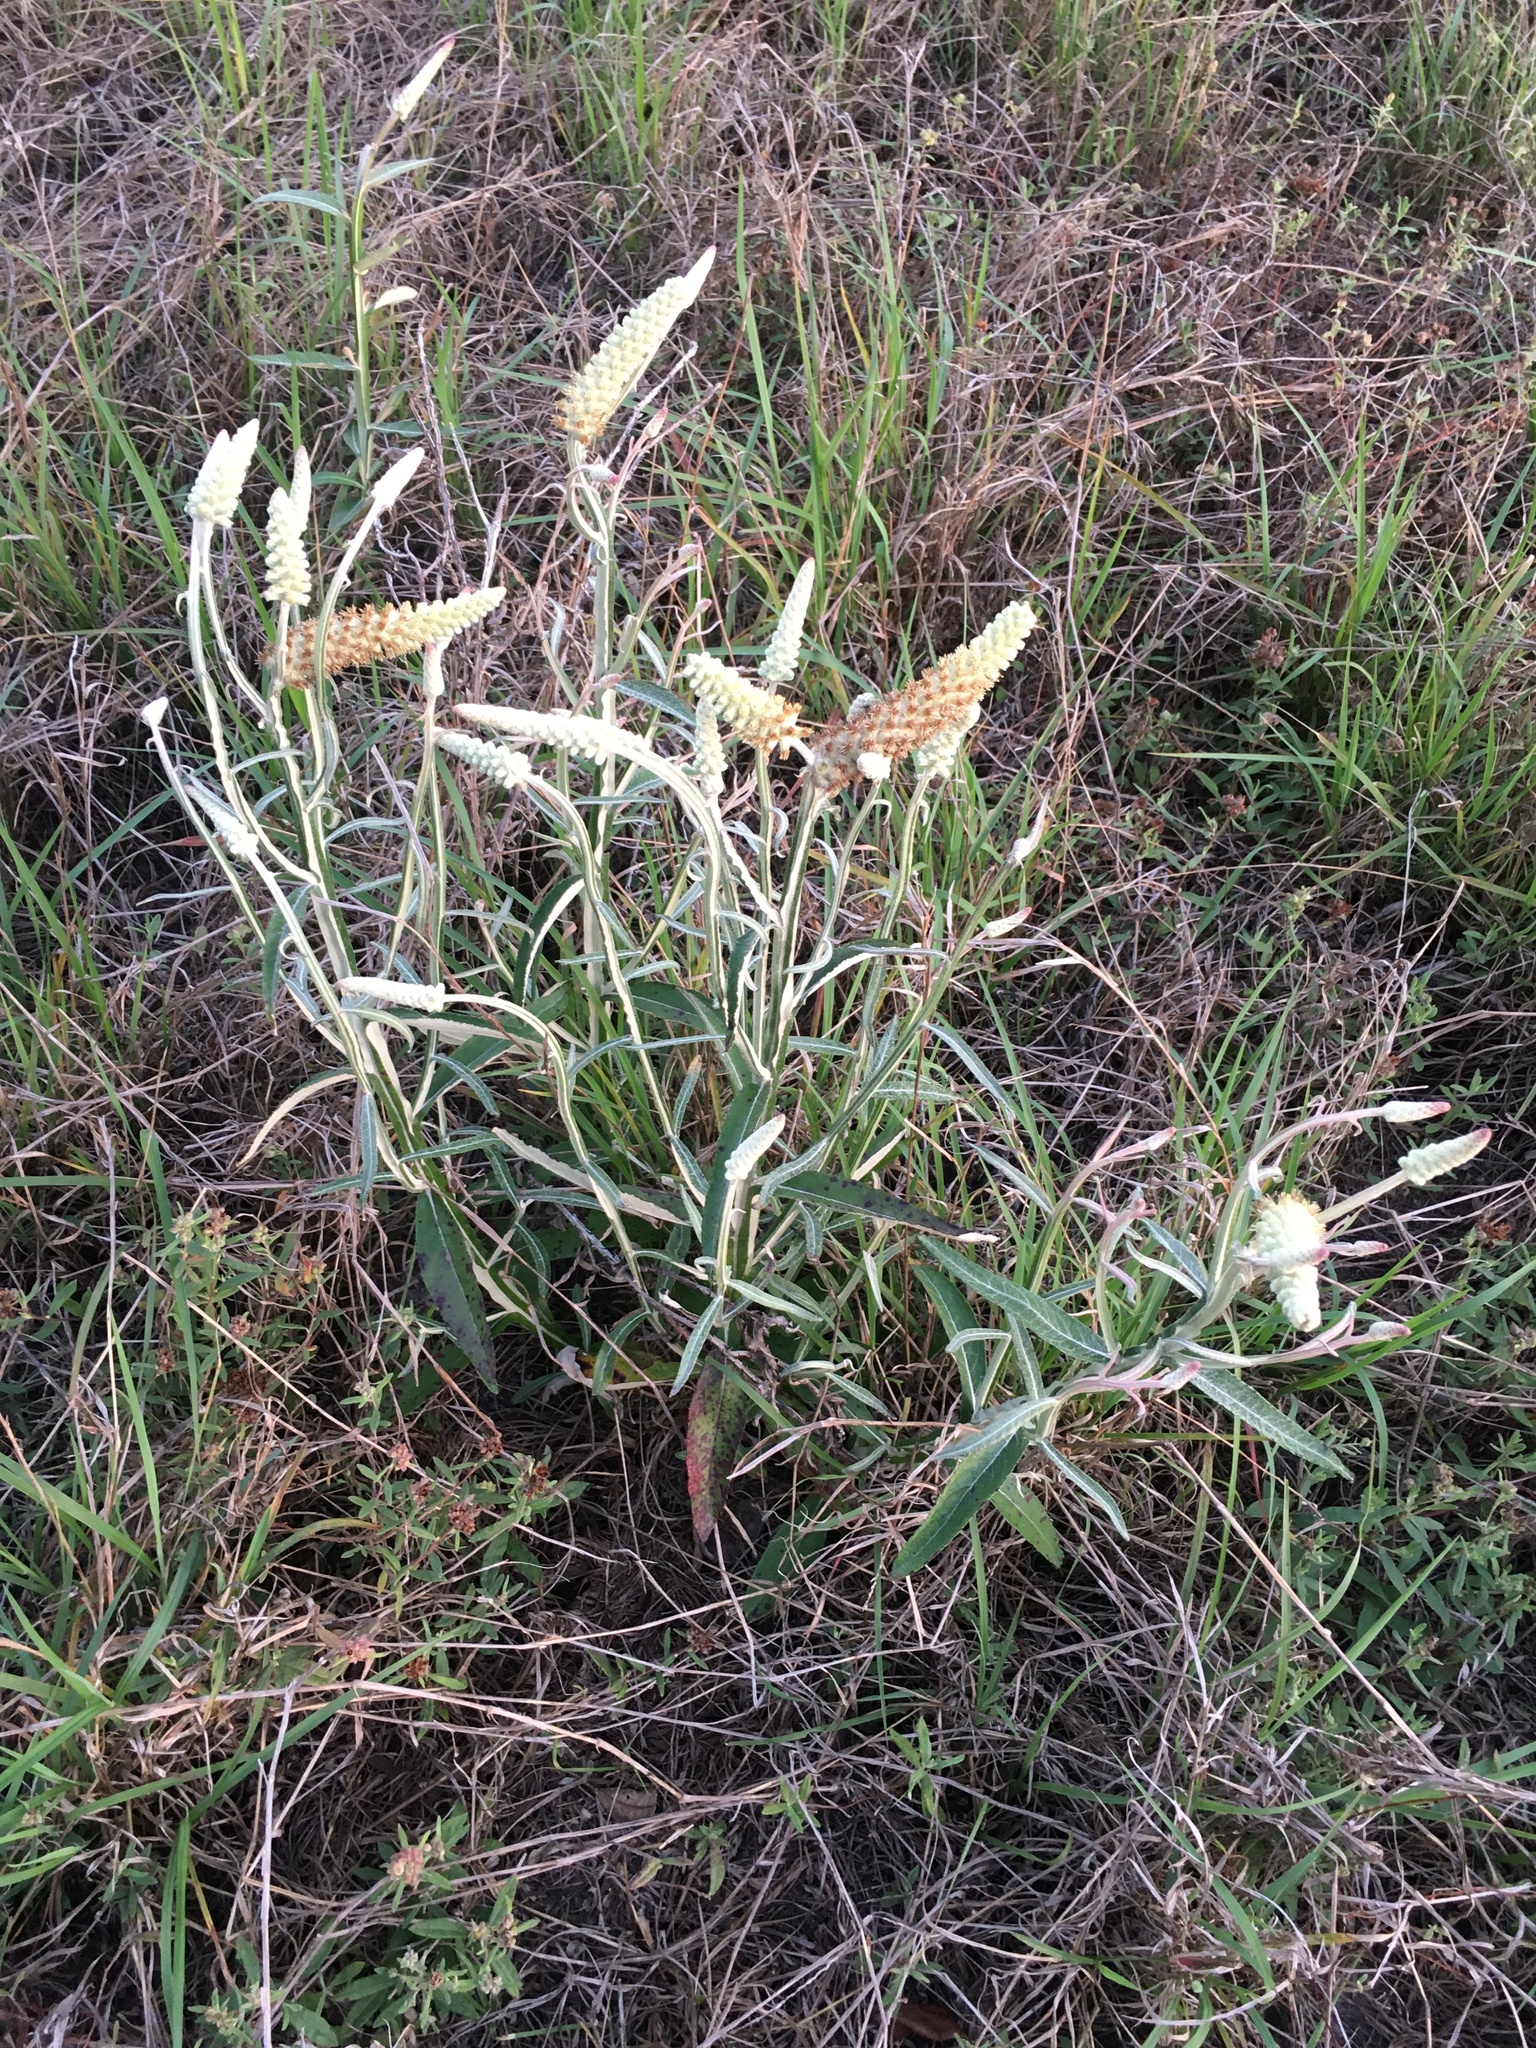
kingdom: Plantae
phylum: Tracheophyta
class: Magnoliopsida
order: Asterales
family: Asteraceae
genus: Pterocaulon
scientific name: Pterocaulon pycnostachyum
